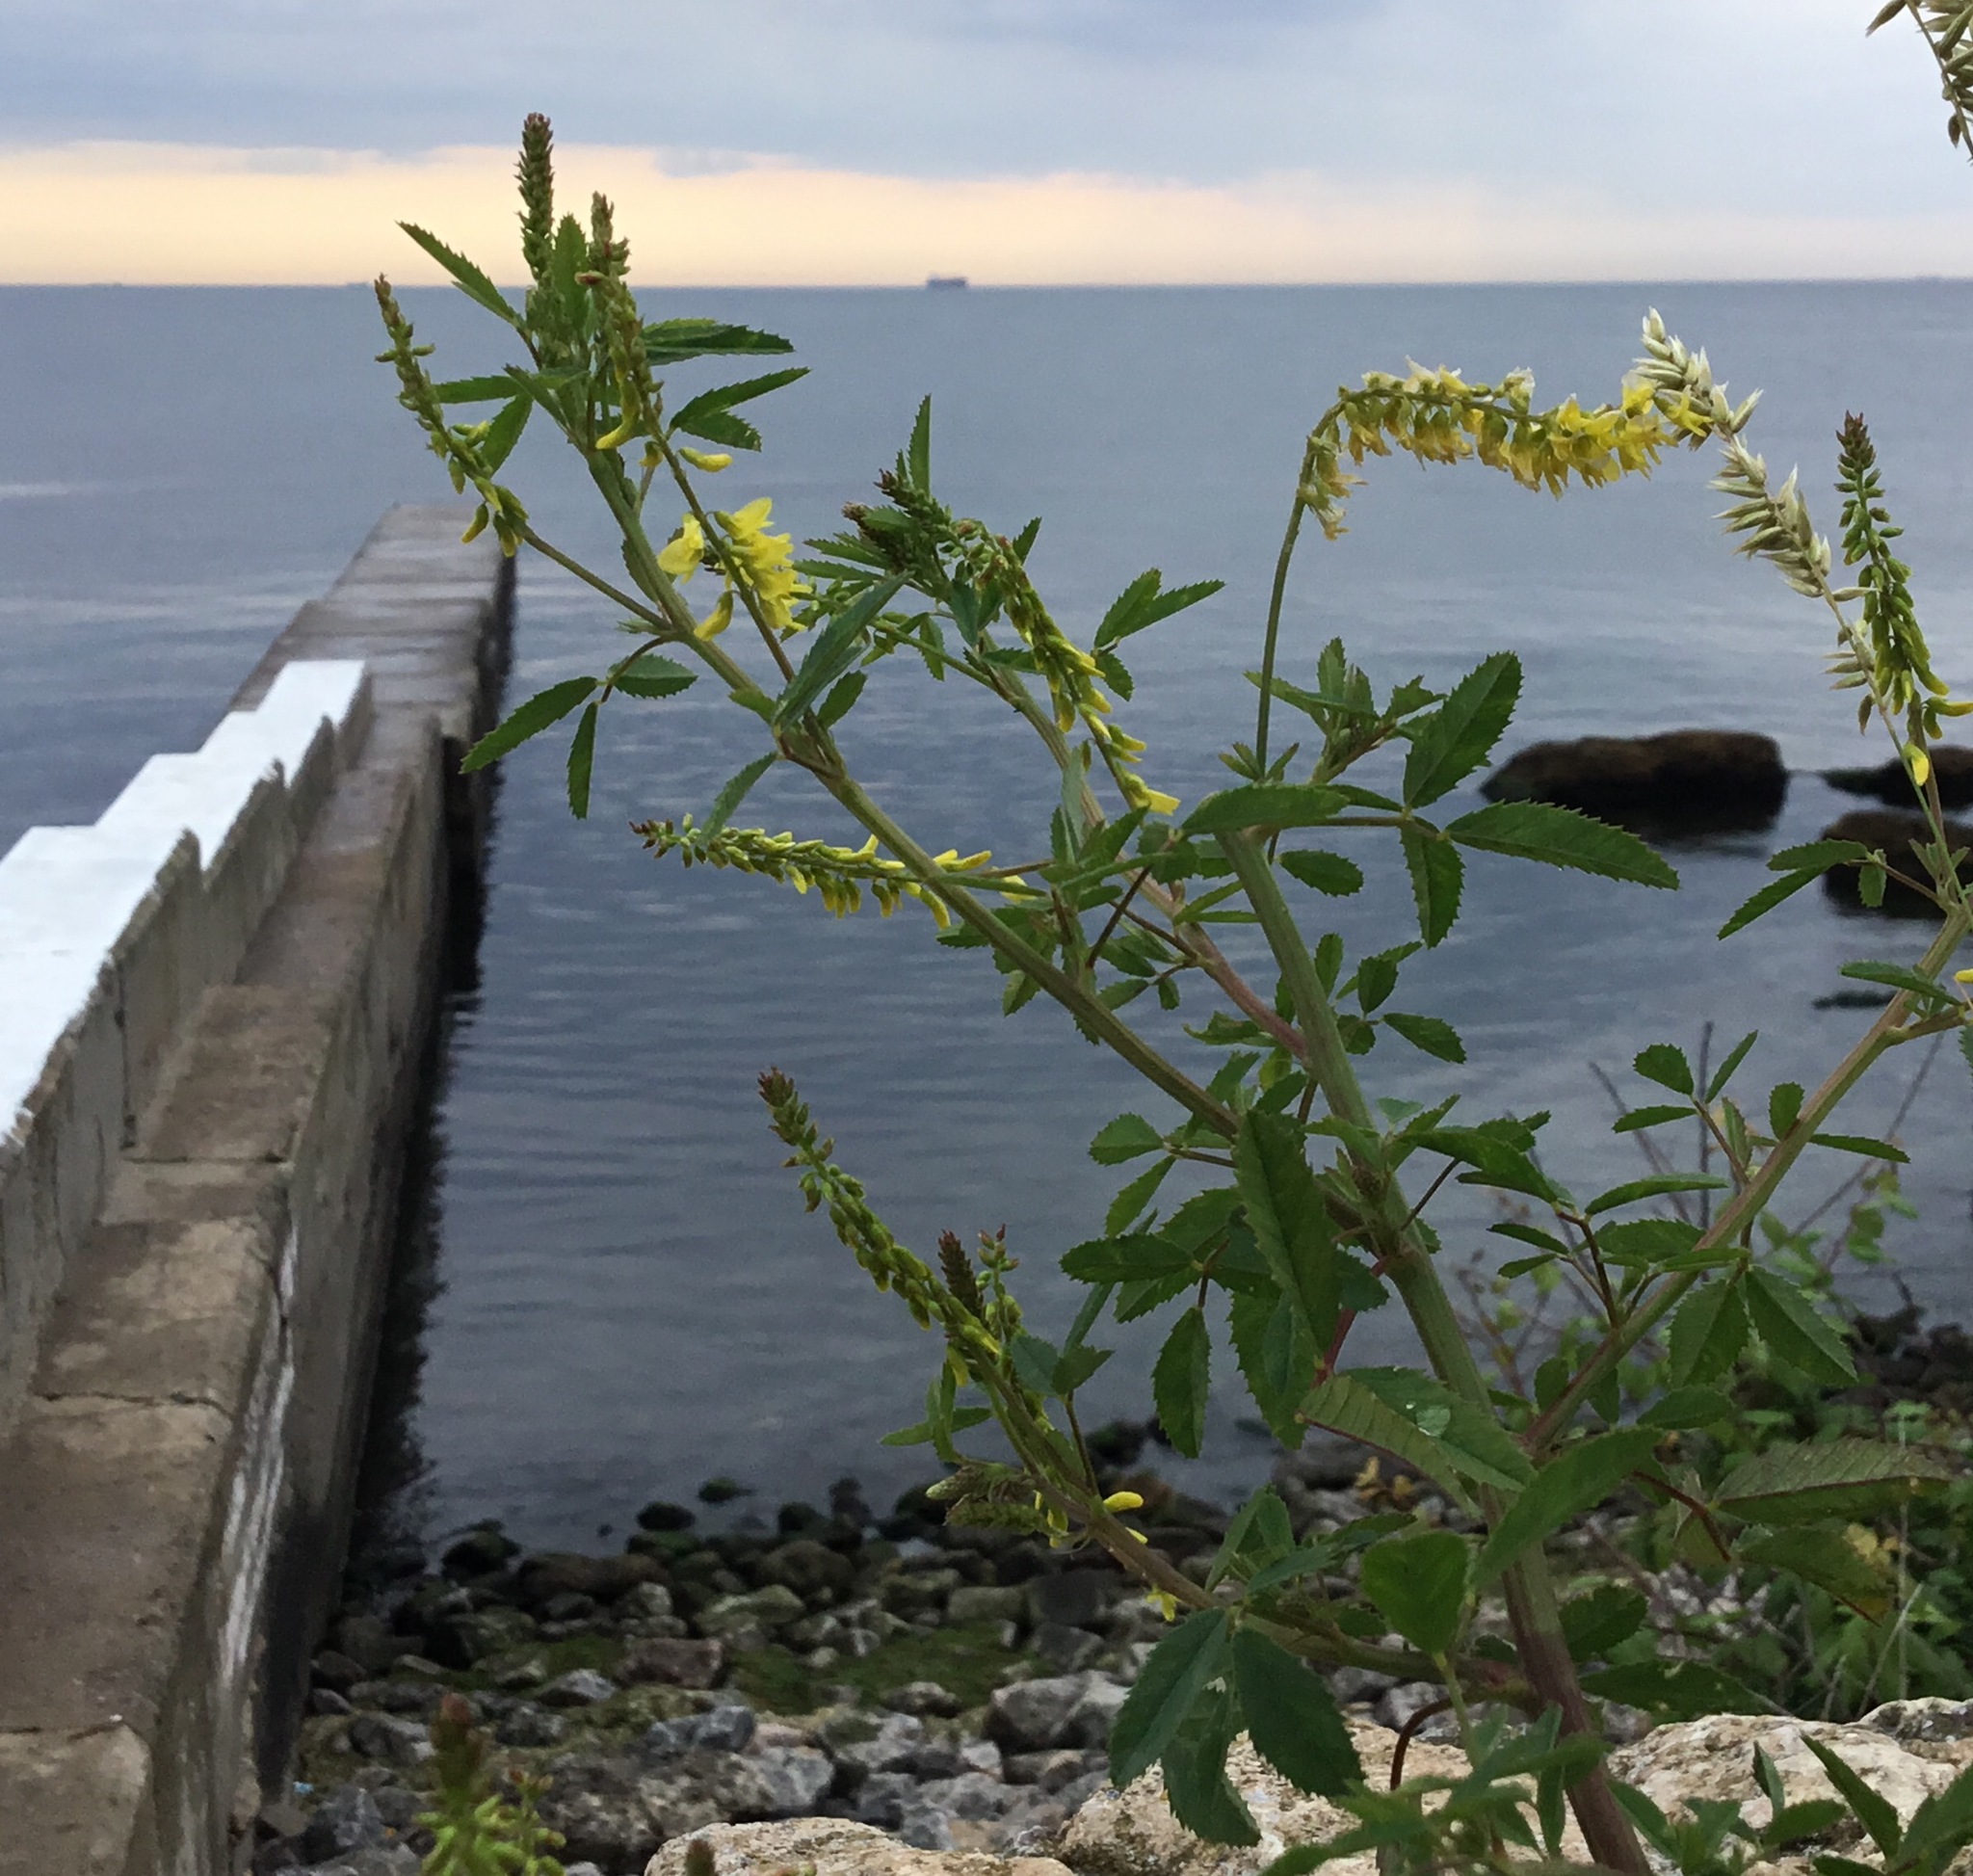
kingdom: Plantae
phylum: Tracheophyta
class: Magnoliopsida
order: Fabales
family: Fabaceae
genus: Melilotus
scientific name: Melilotus officinalis
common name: Sweetclover
